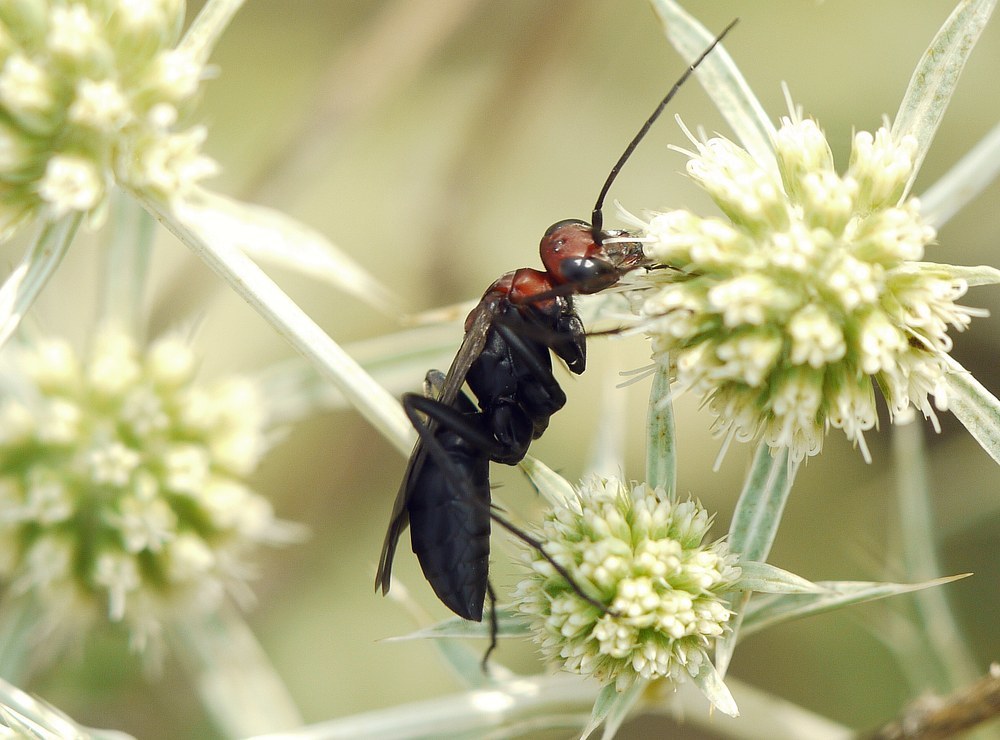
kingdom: Animalia
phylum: Arthropoda
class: Insecta
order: Hymenoptera
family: Pompilidae
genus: Agenioideus
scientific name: Agenioideus dichrous
